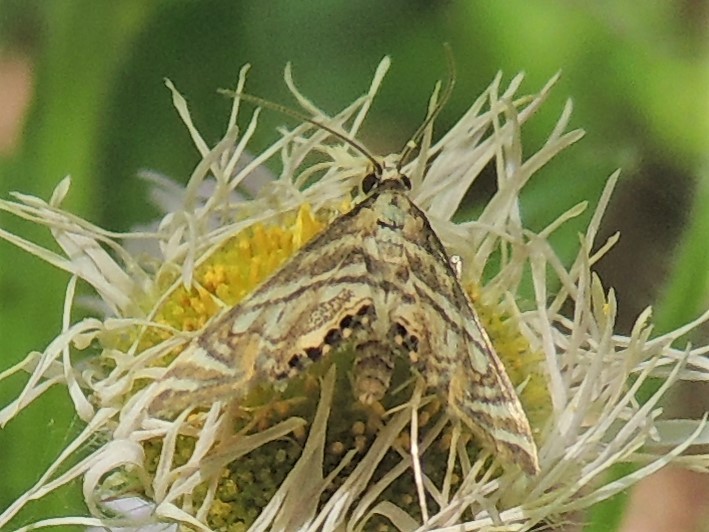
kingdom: Animalia
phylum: Arthropoda
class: Insecta
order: Lepidoptera
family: Crambidae
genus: Petrophila
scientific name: Petrophila canadensis
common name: Canadian petrophila
